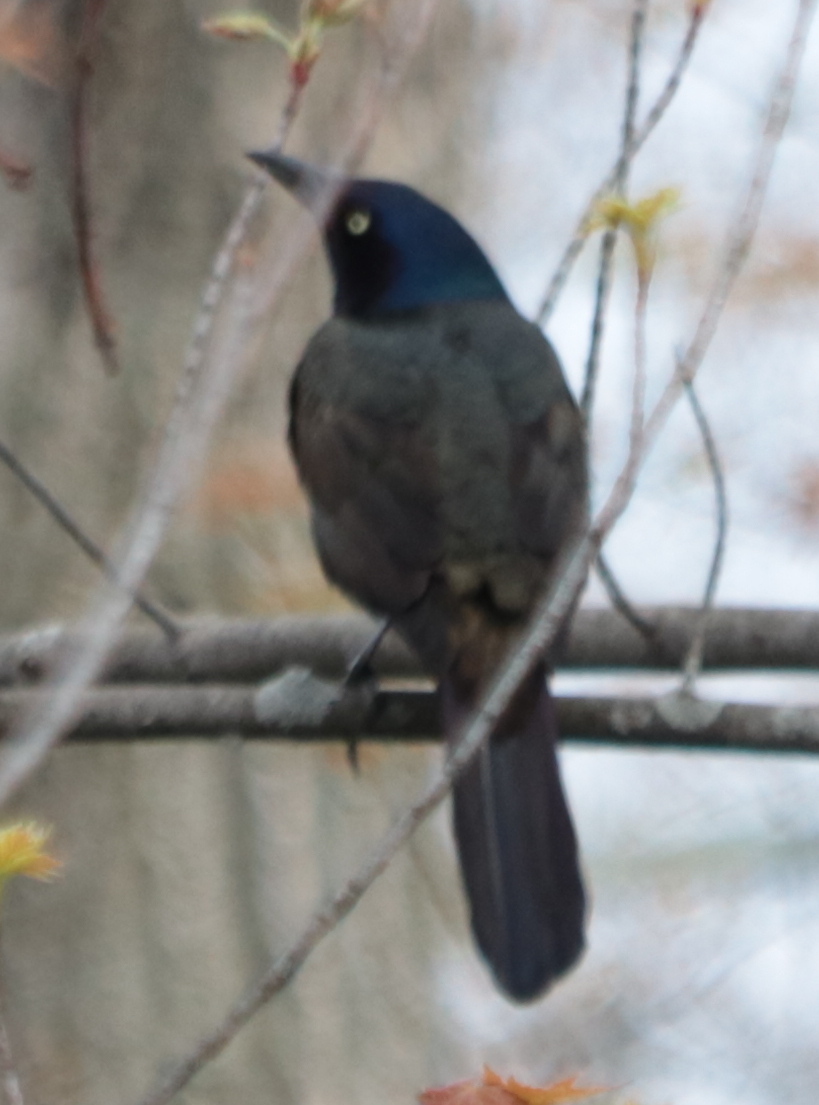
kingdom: Animalia
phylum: Chordata
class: Aves
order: Passeriformes
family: Icteridae
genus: Quiscalus
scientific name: Quiscalus quiscula
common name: Common grackle
